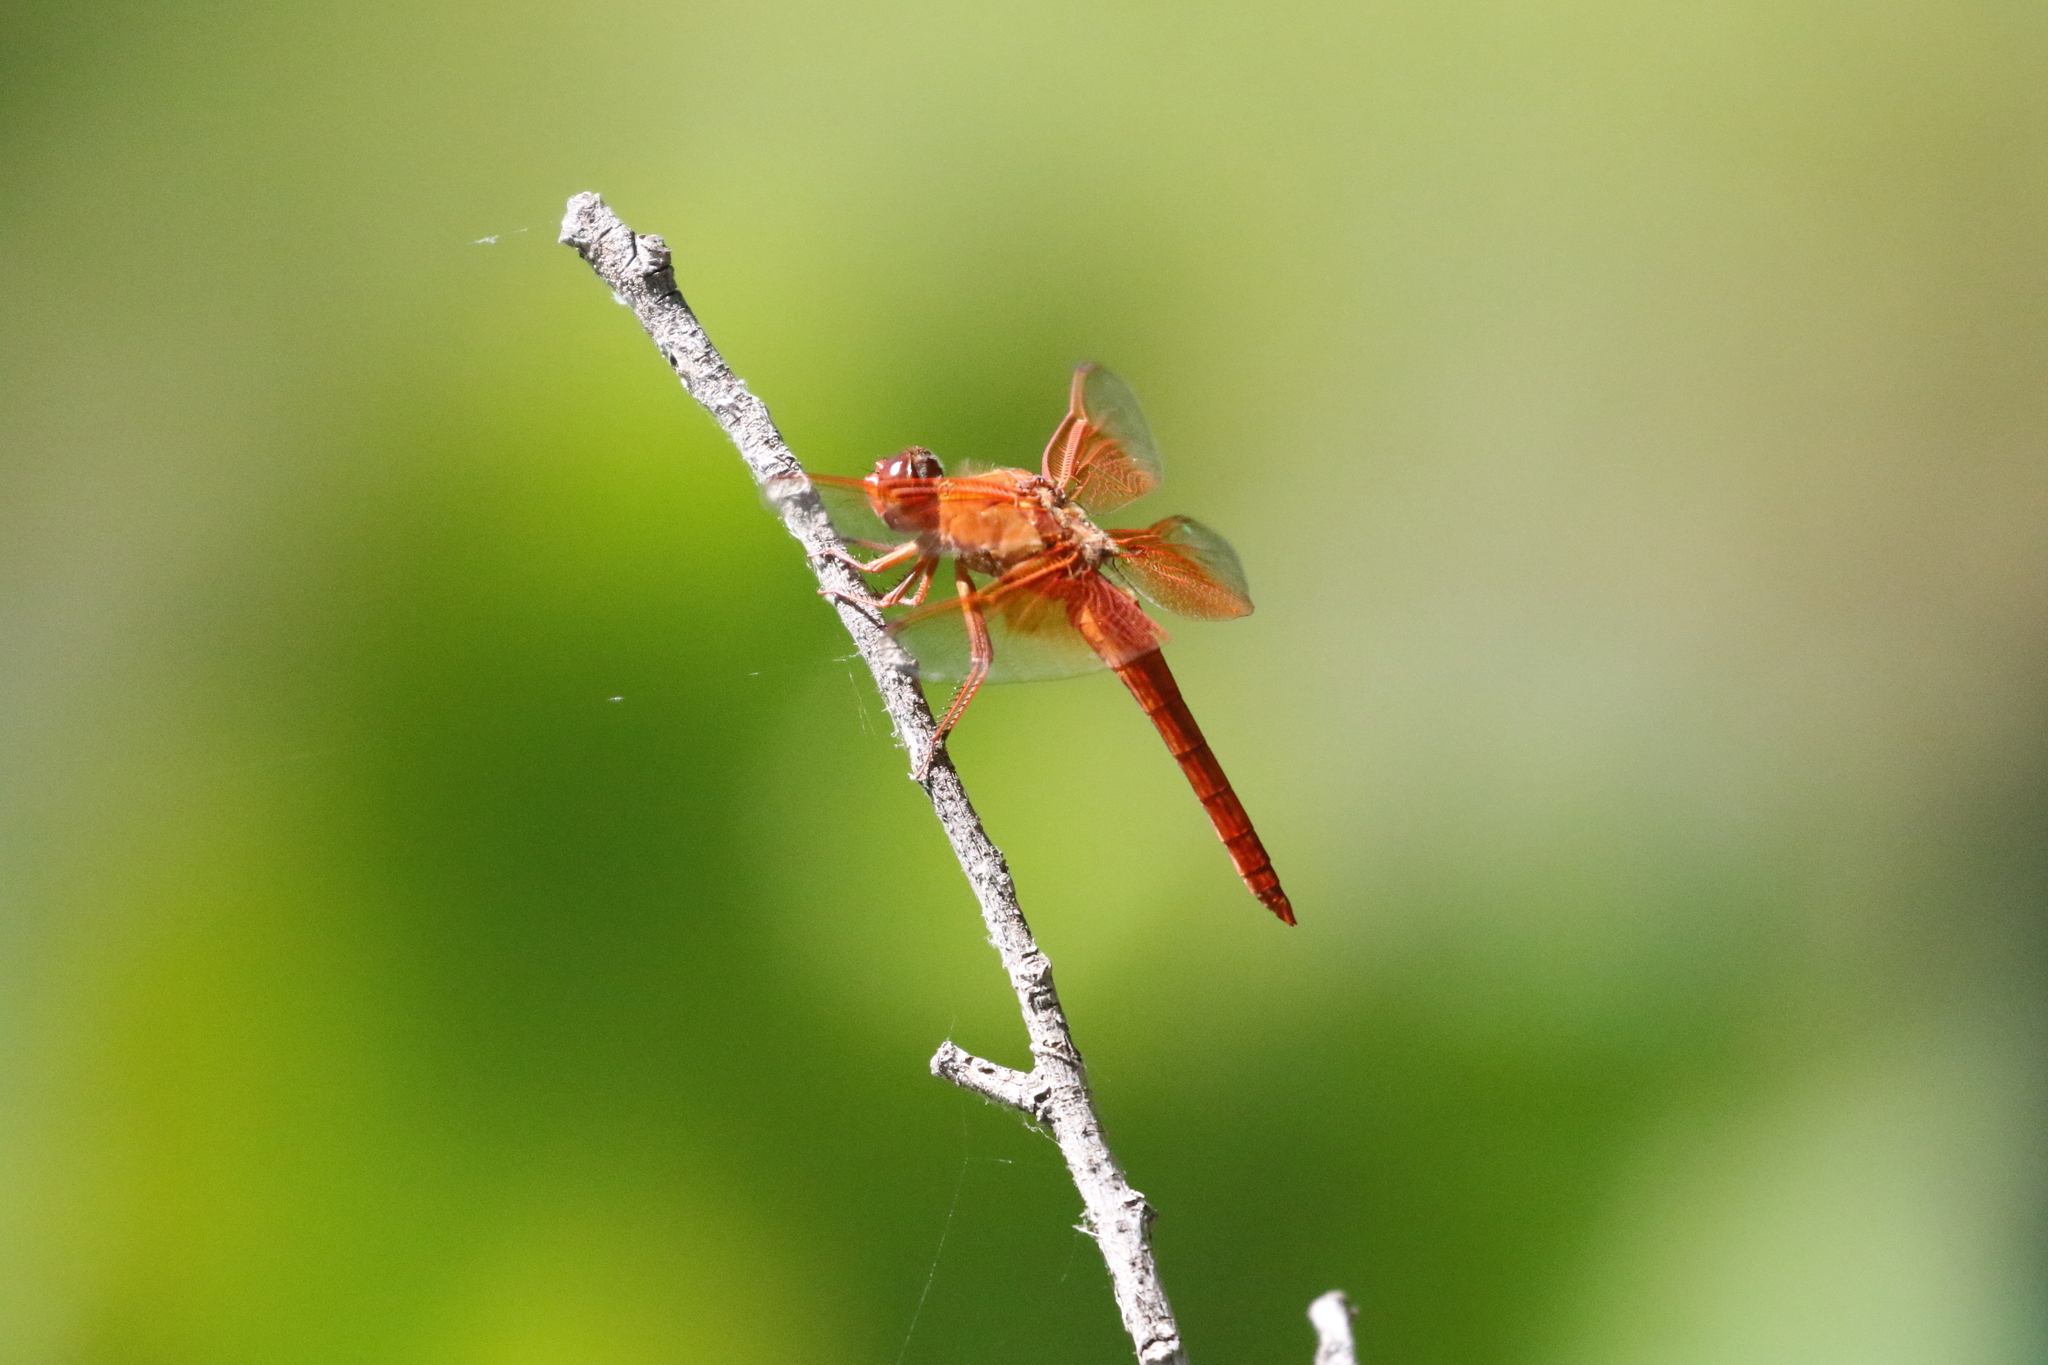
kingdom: Animalia
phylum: Arthropoda
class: Insecta
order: Odonata
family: Libellulidae
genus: Libellula
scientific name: Libellula saturata
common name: Flame skimmer
